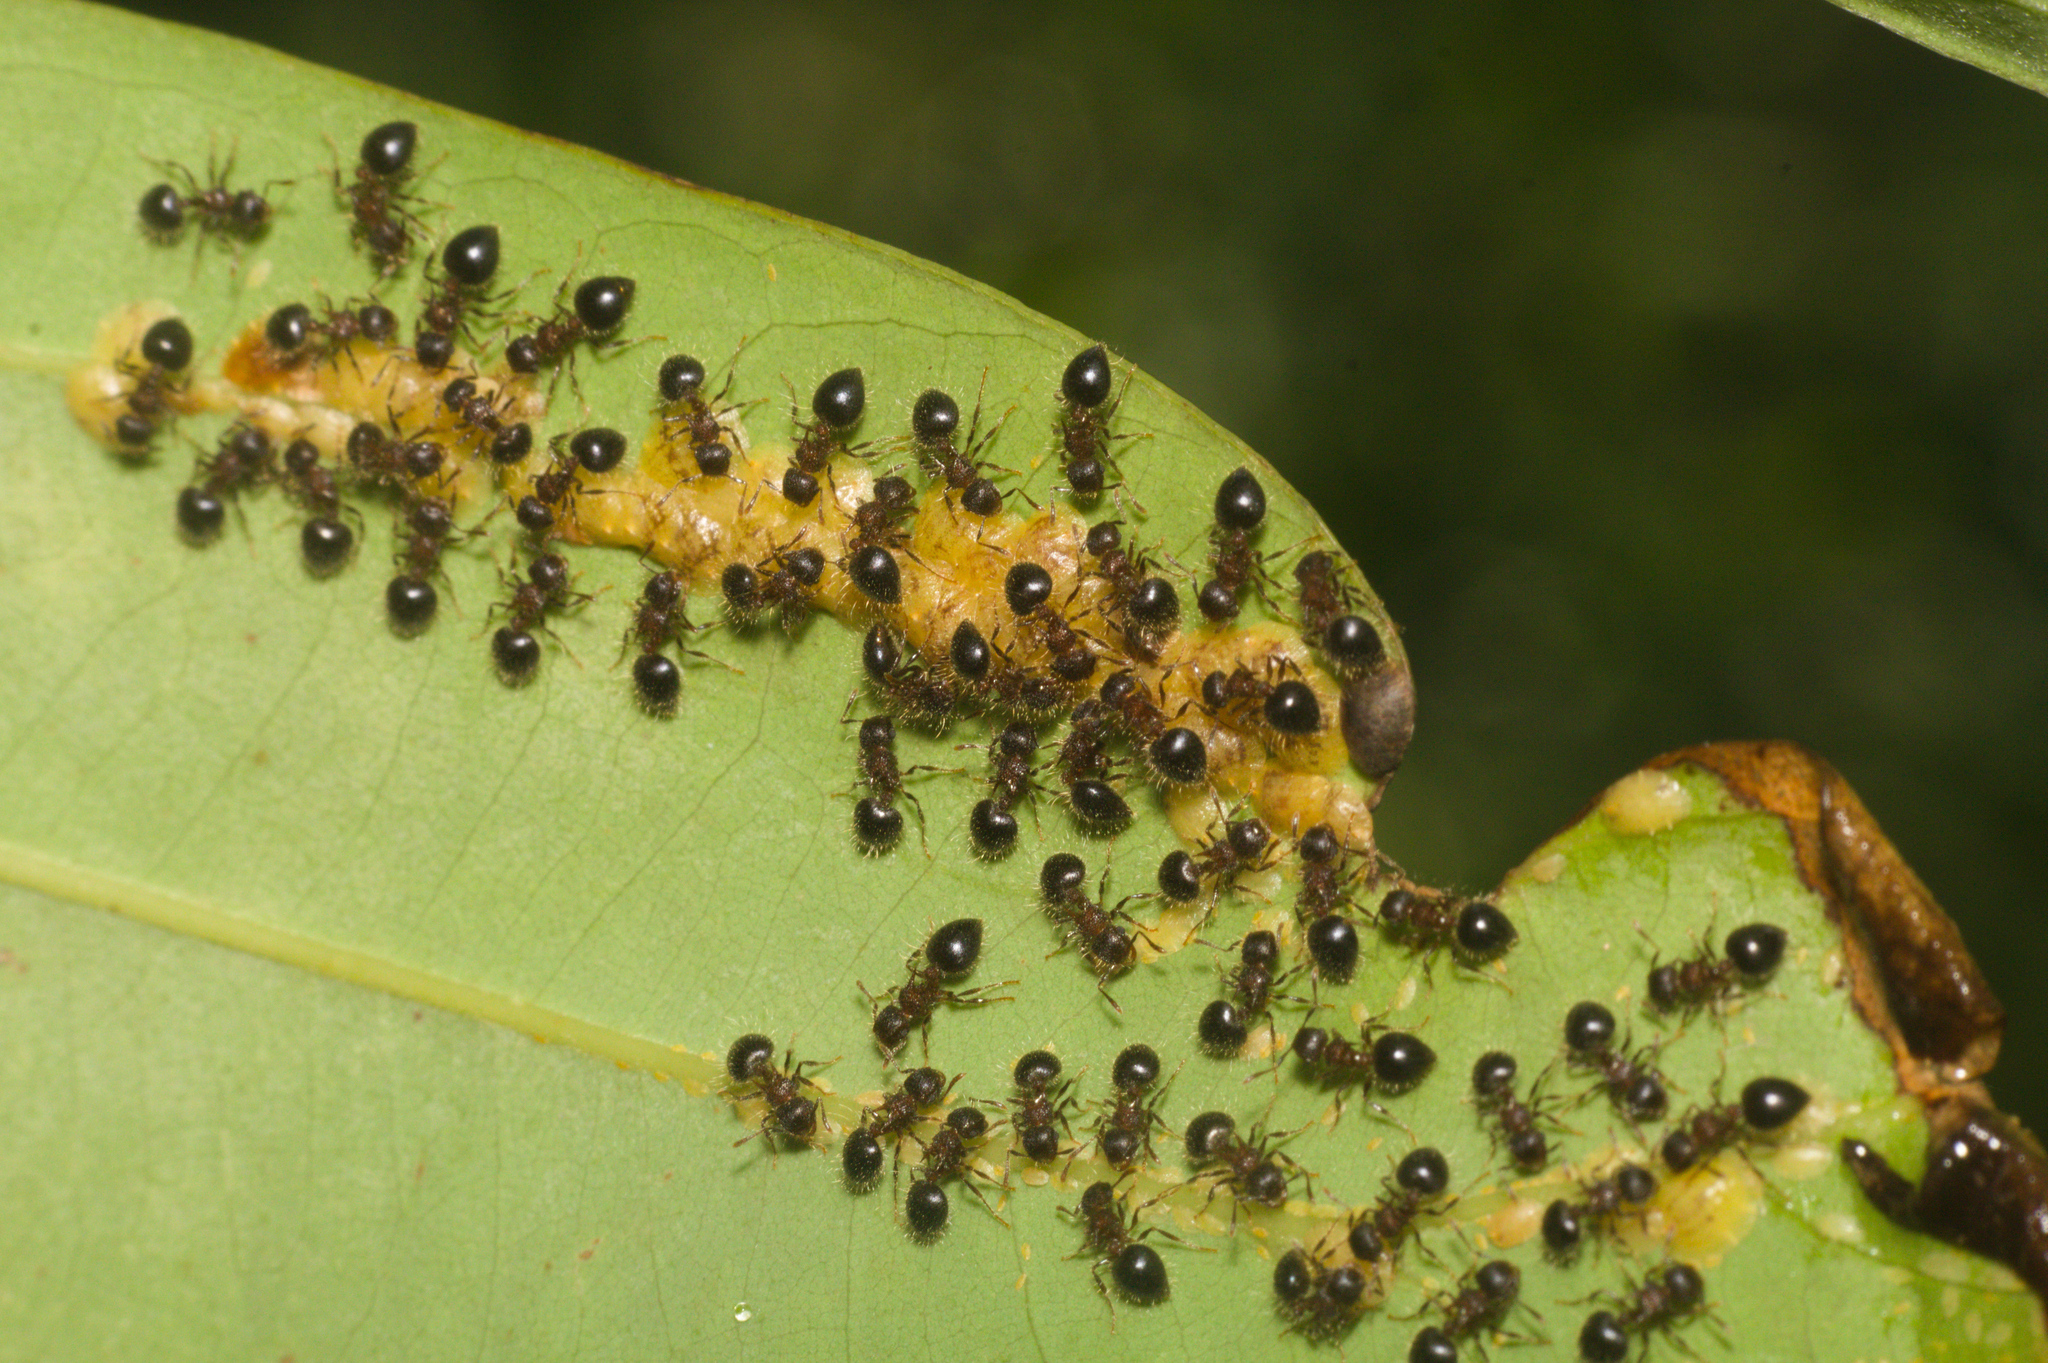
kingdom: Animalia
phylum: Arthropoda
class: Insecta
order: Hymenoptera
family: Formicidae
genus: Meranoplus
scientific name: Meranoplus bicolor
